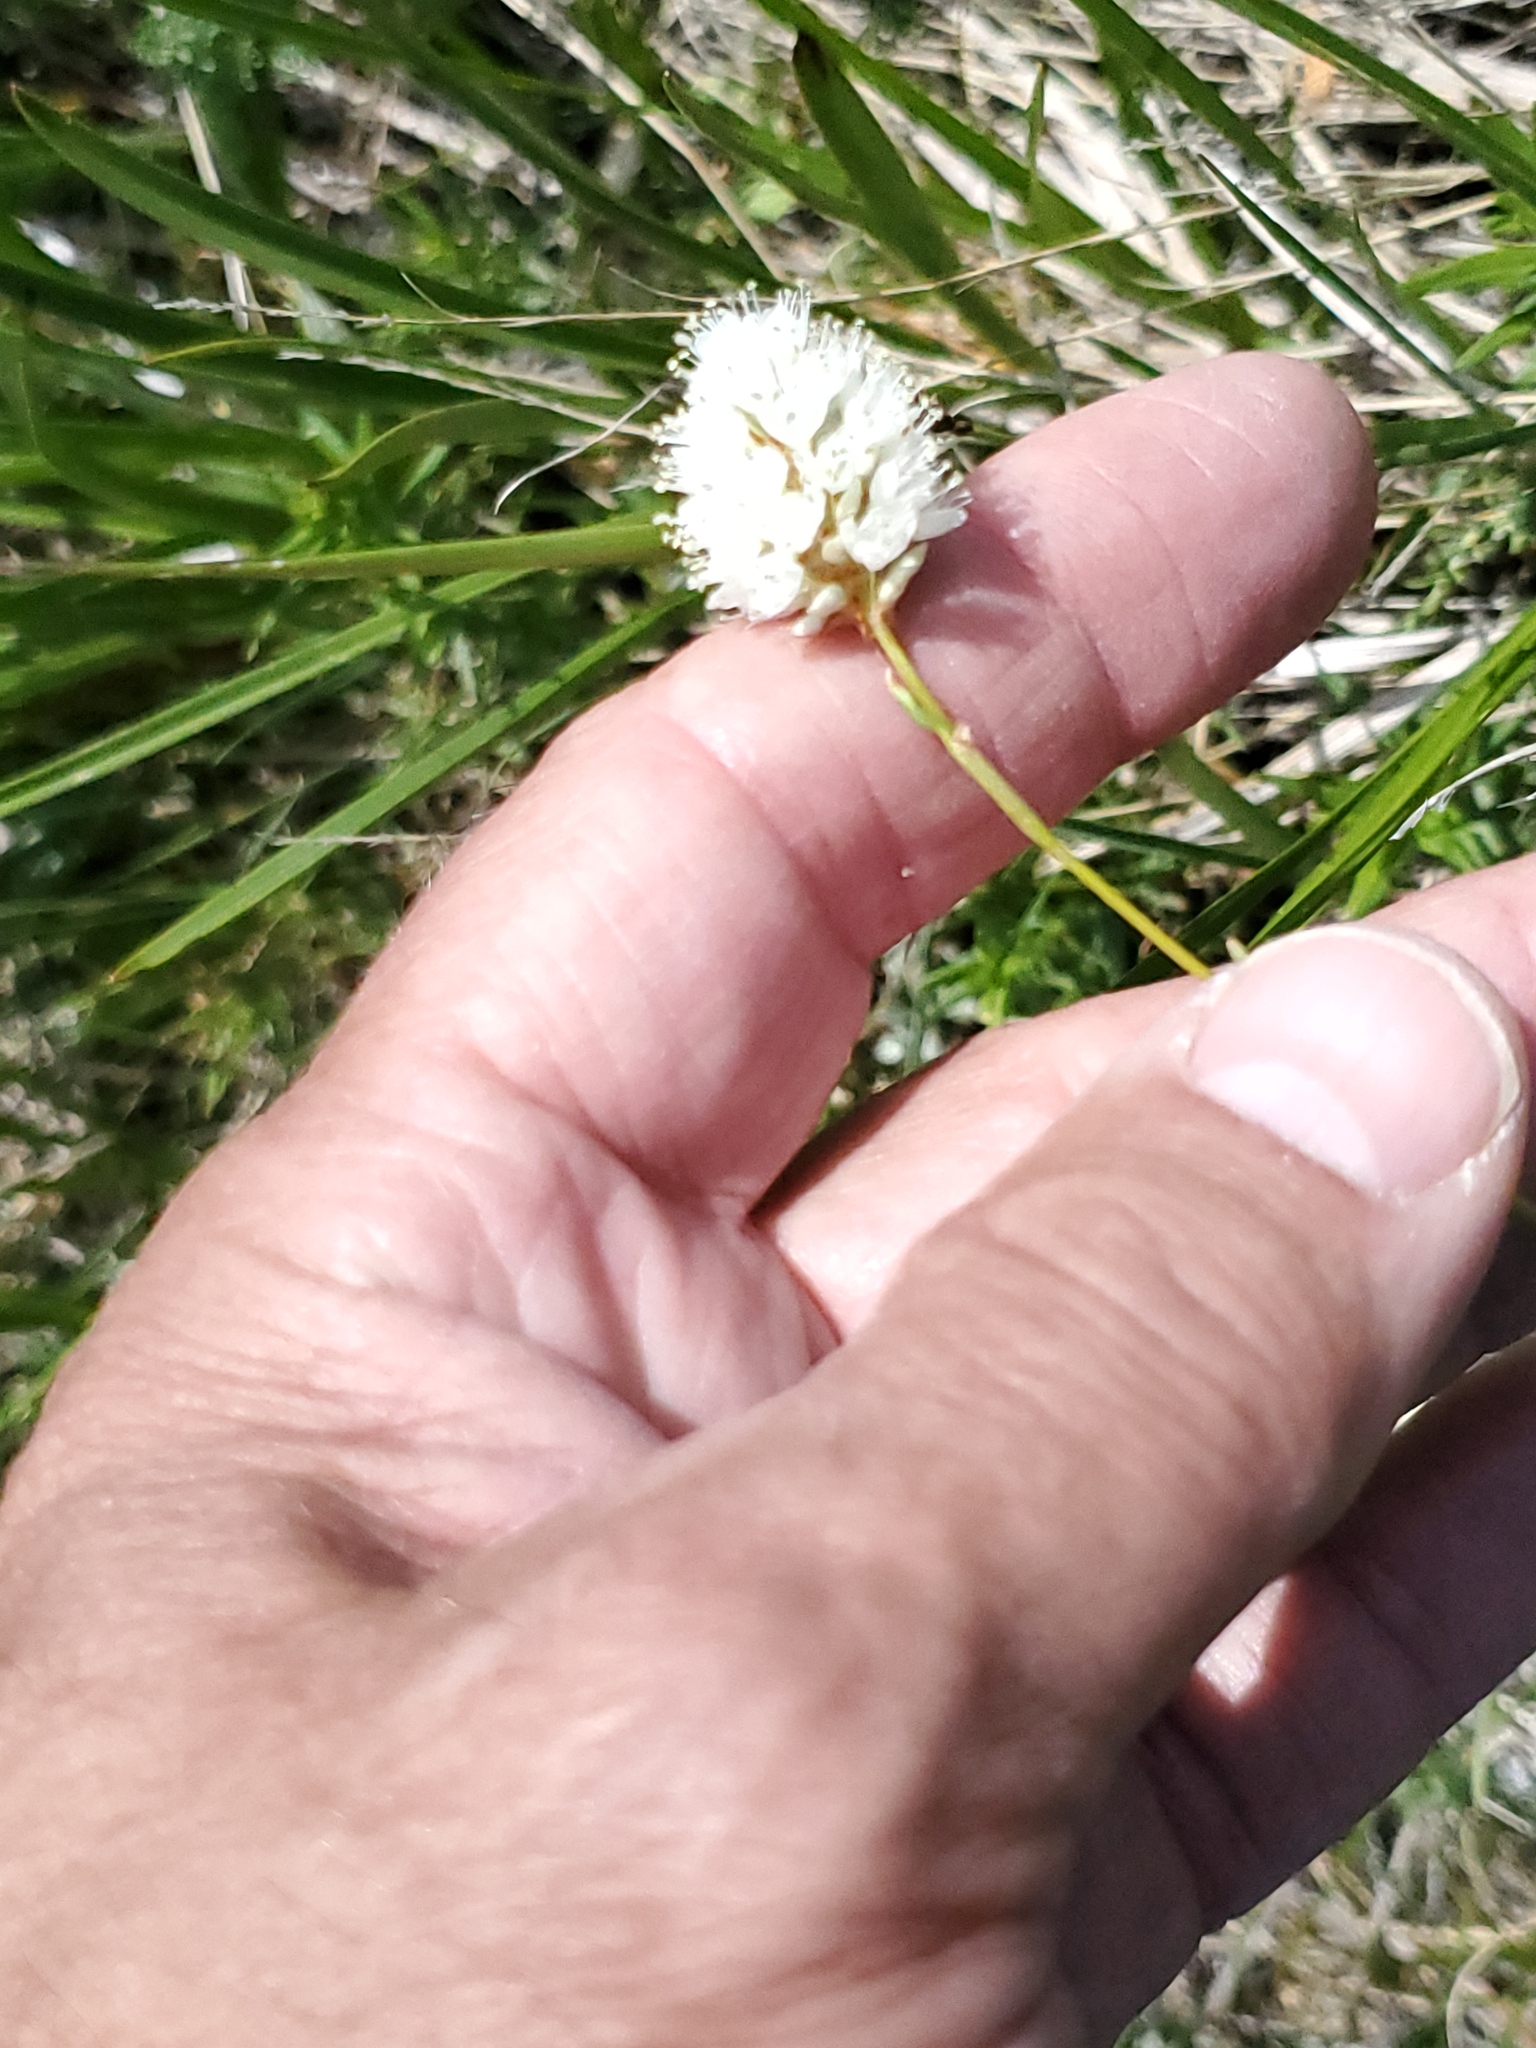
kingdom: Plantae
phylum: Tracheophyta
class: Magnoliopsida
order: Caryophyllales
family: Polygonaceae
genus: Bistorta
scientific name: Bistorta bistortoides
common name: American bistort
